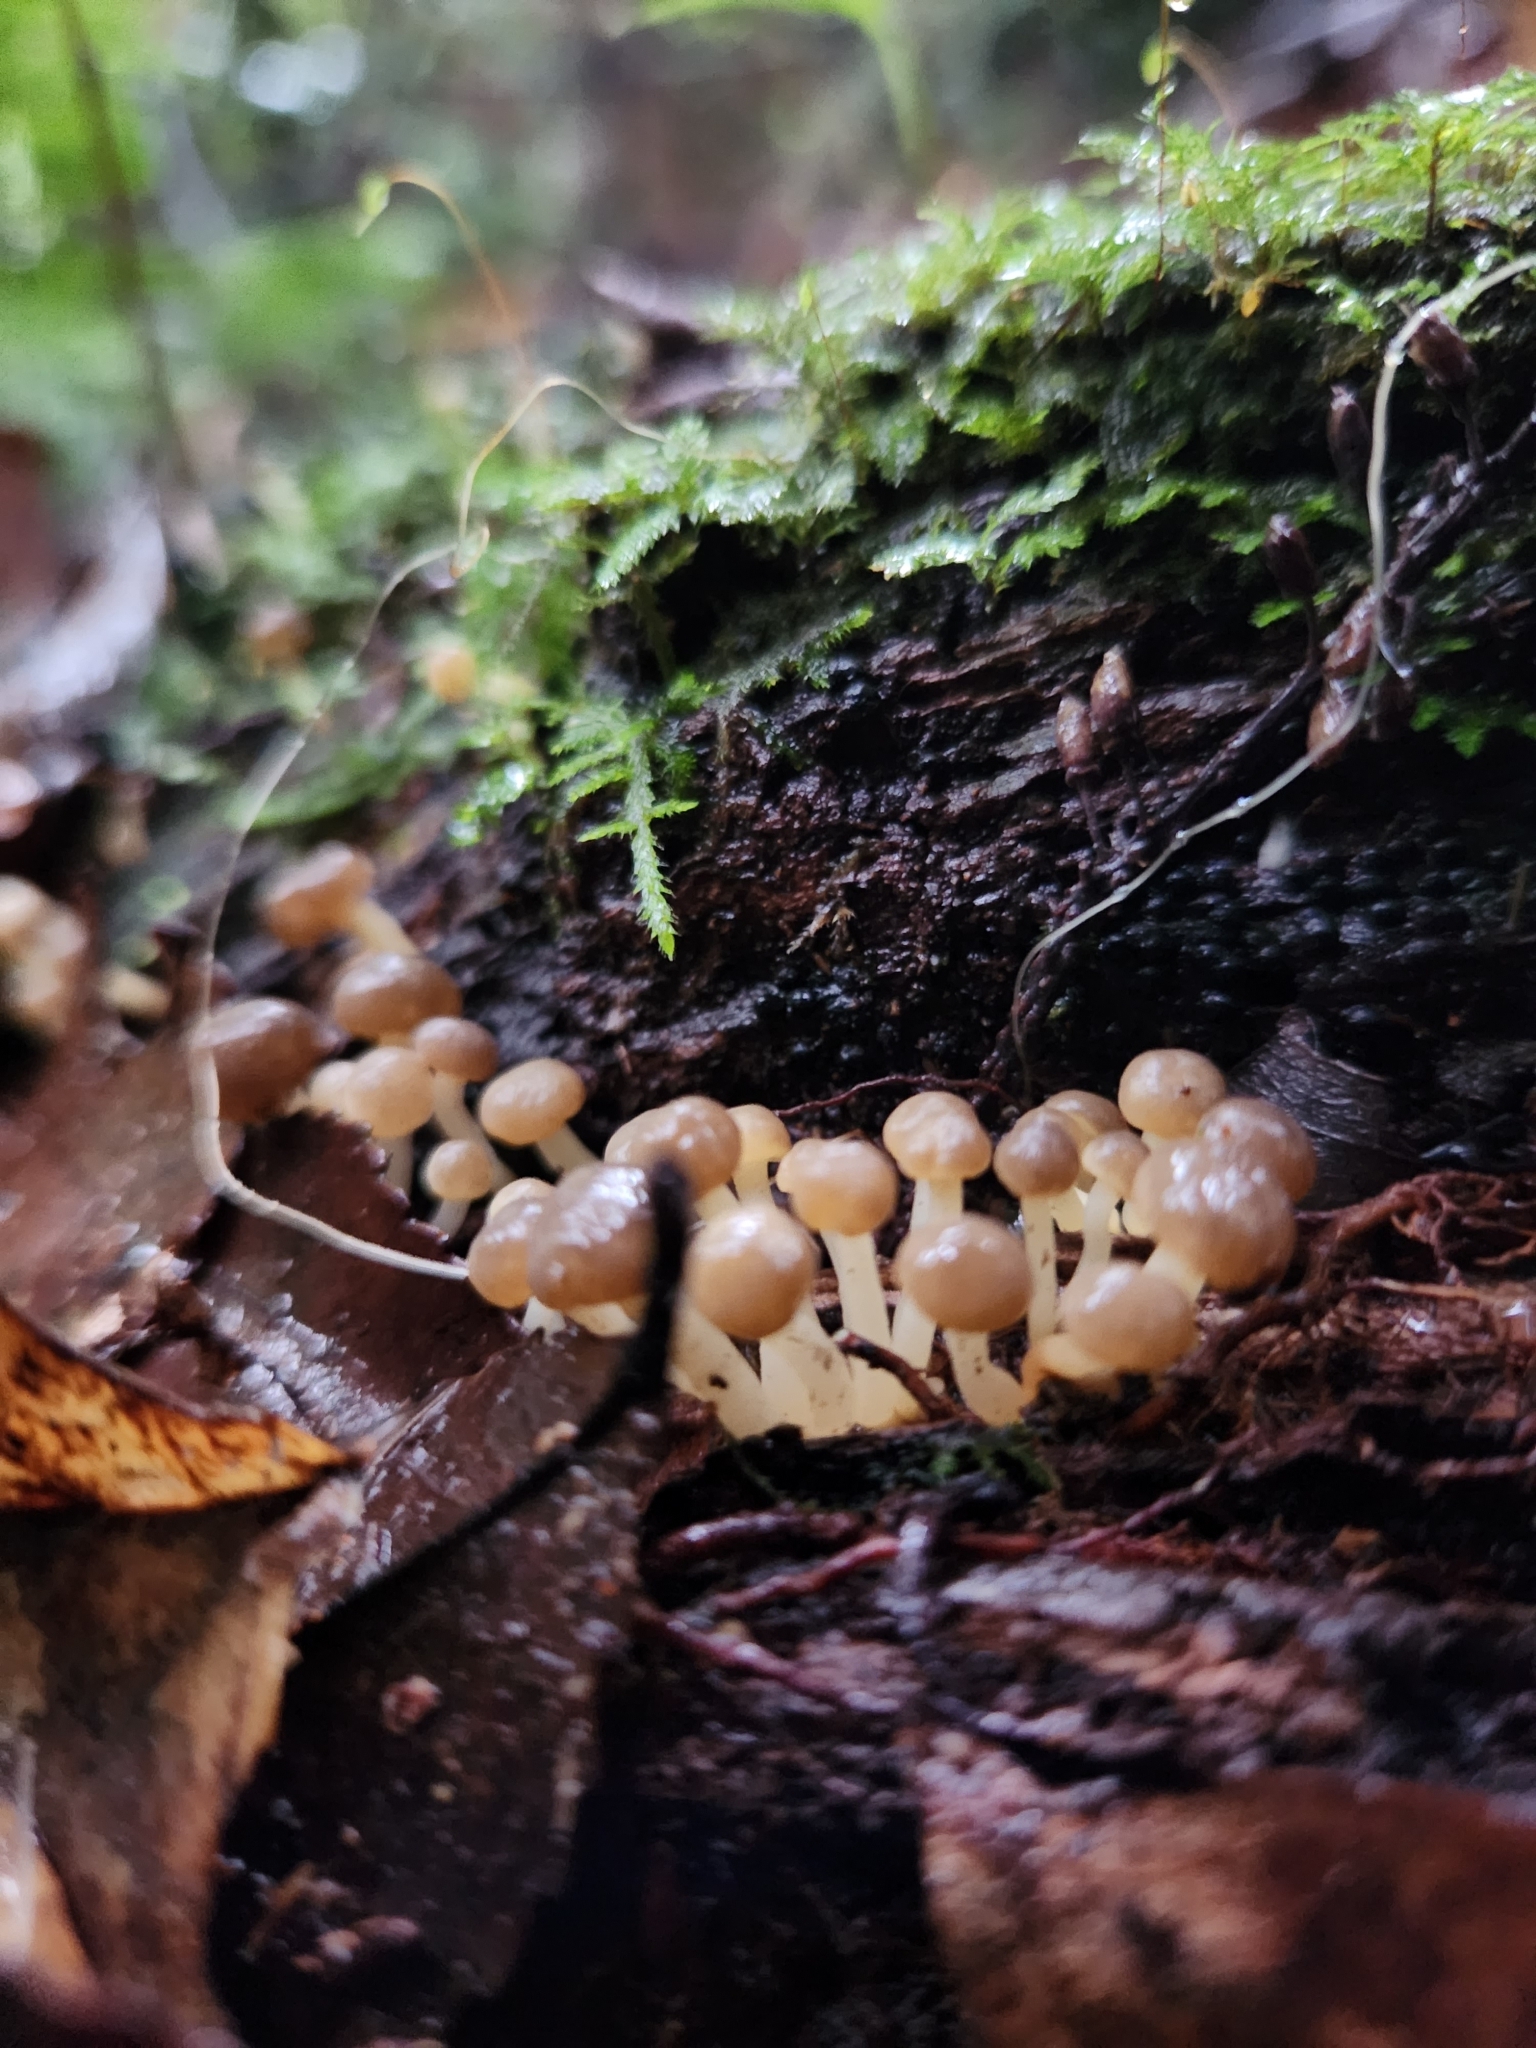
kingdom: Fungi
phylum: Ascomycota
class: Leotiomycetes
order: Helotiales
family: Vibrisseaceae
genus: Chlorovibrissea
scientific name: Chlorovibrissea albofusca
